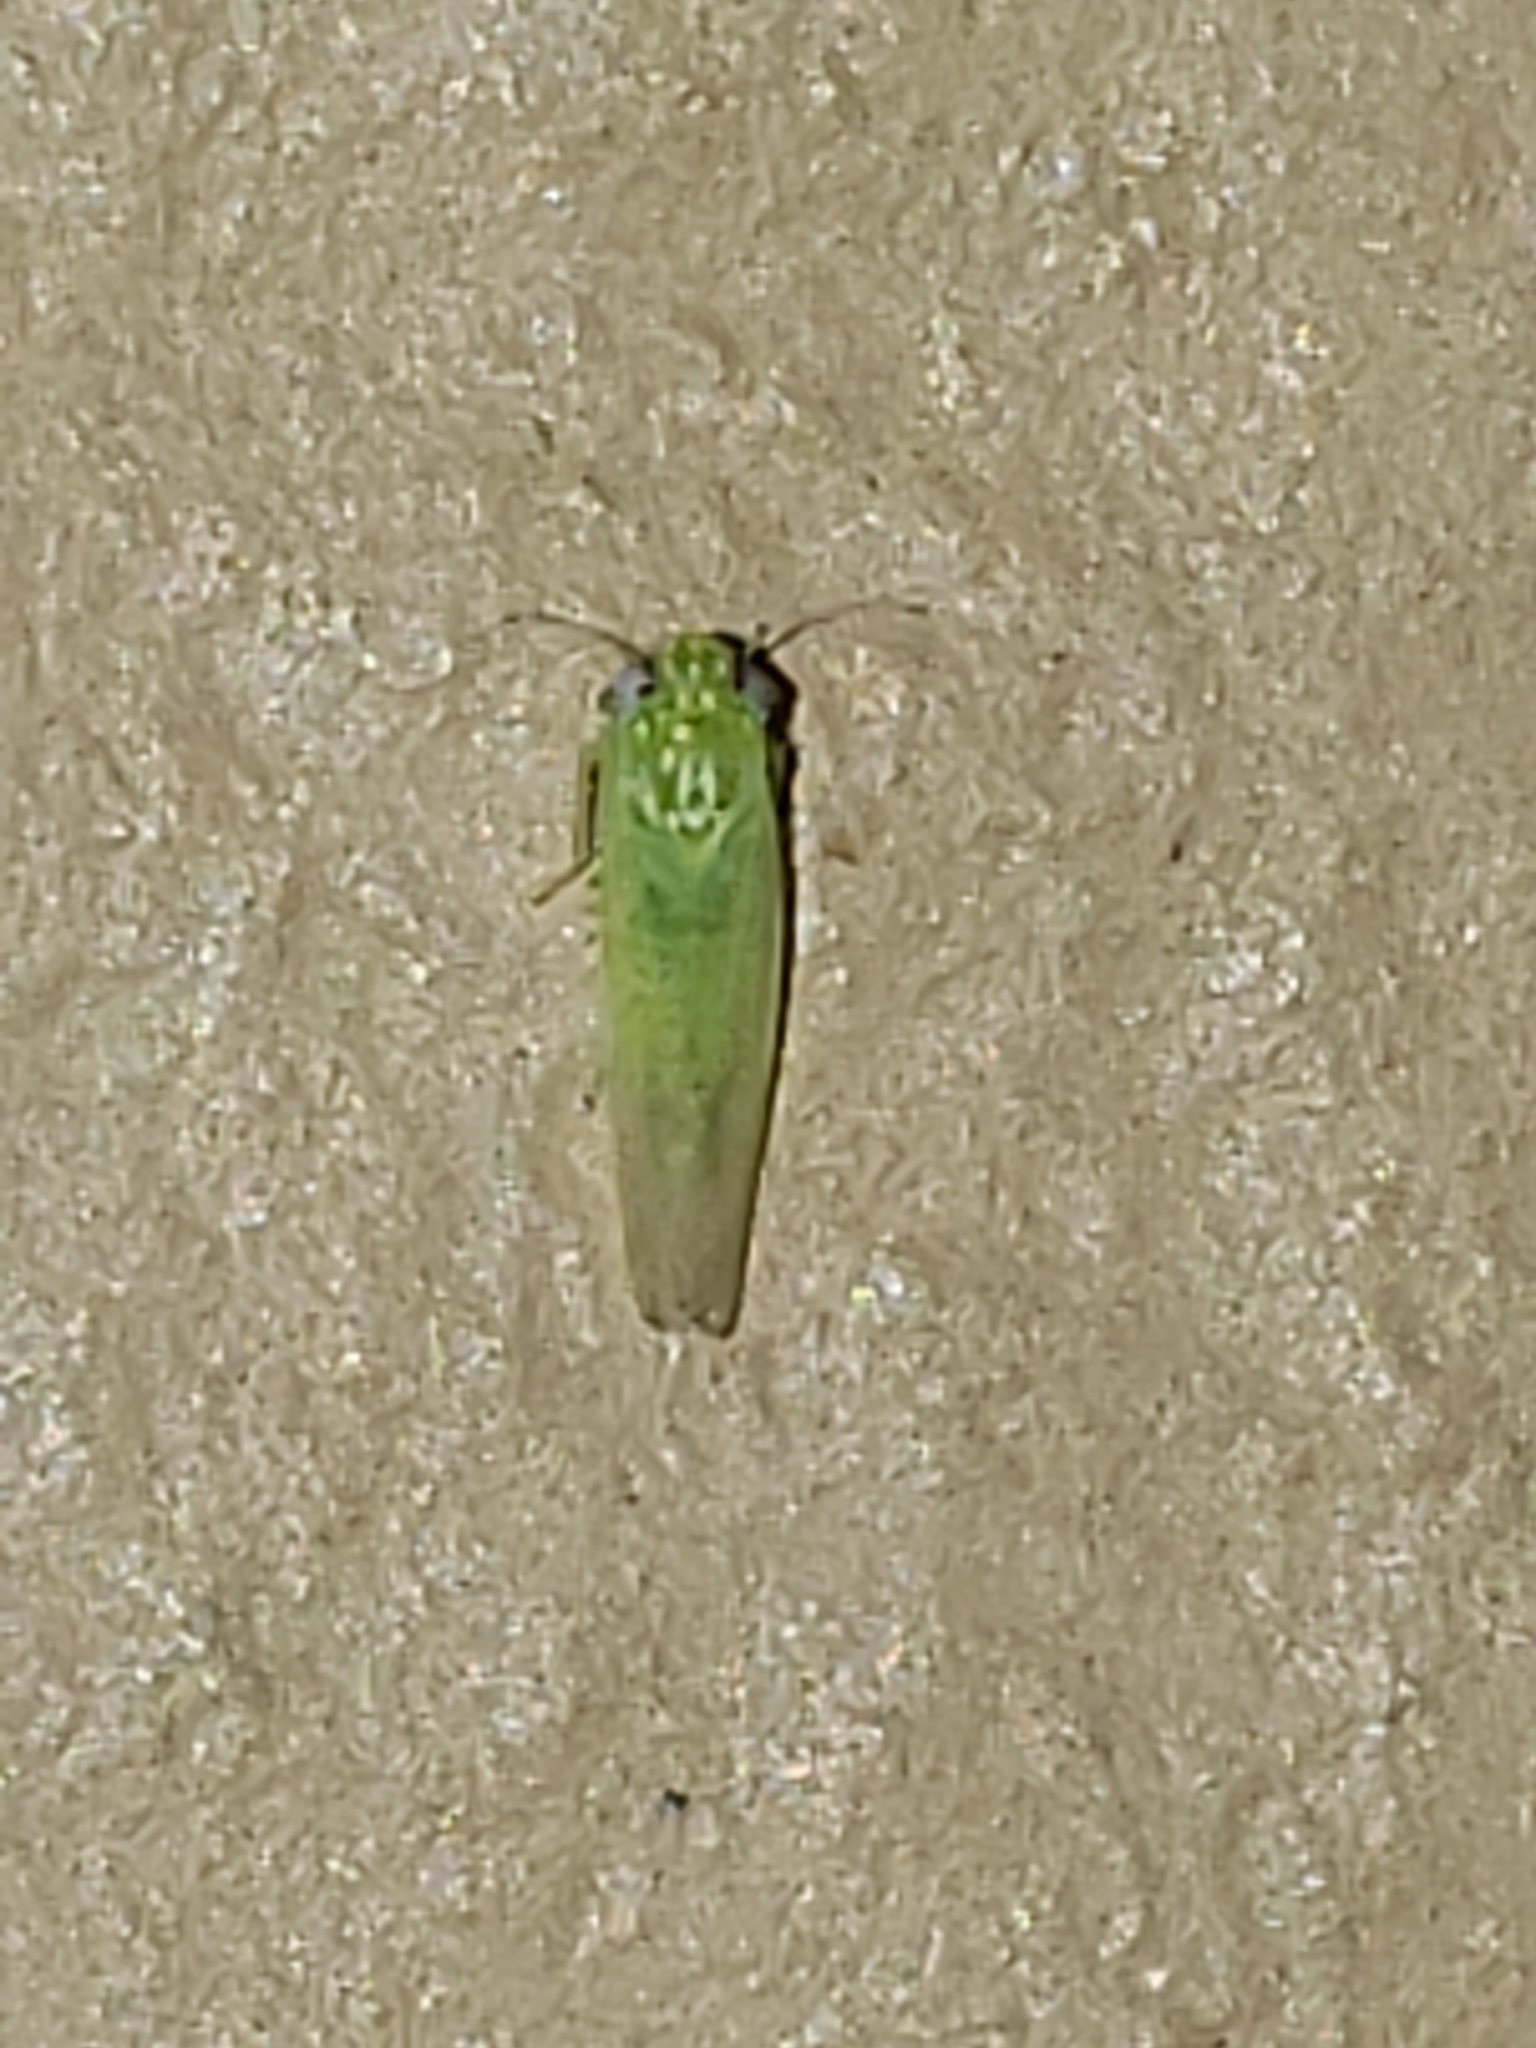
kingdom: Animalia
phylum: Arthropoda
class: Insecta
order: Hemiptera
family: Cicadellidae
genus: Empoasca
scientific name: Empoasca fabae
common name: Potato leafhopper
